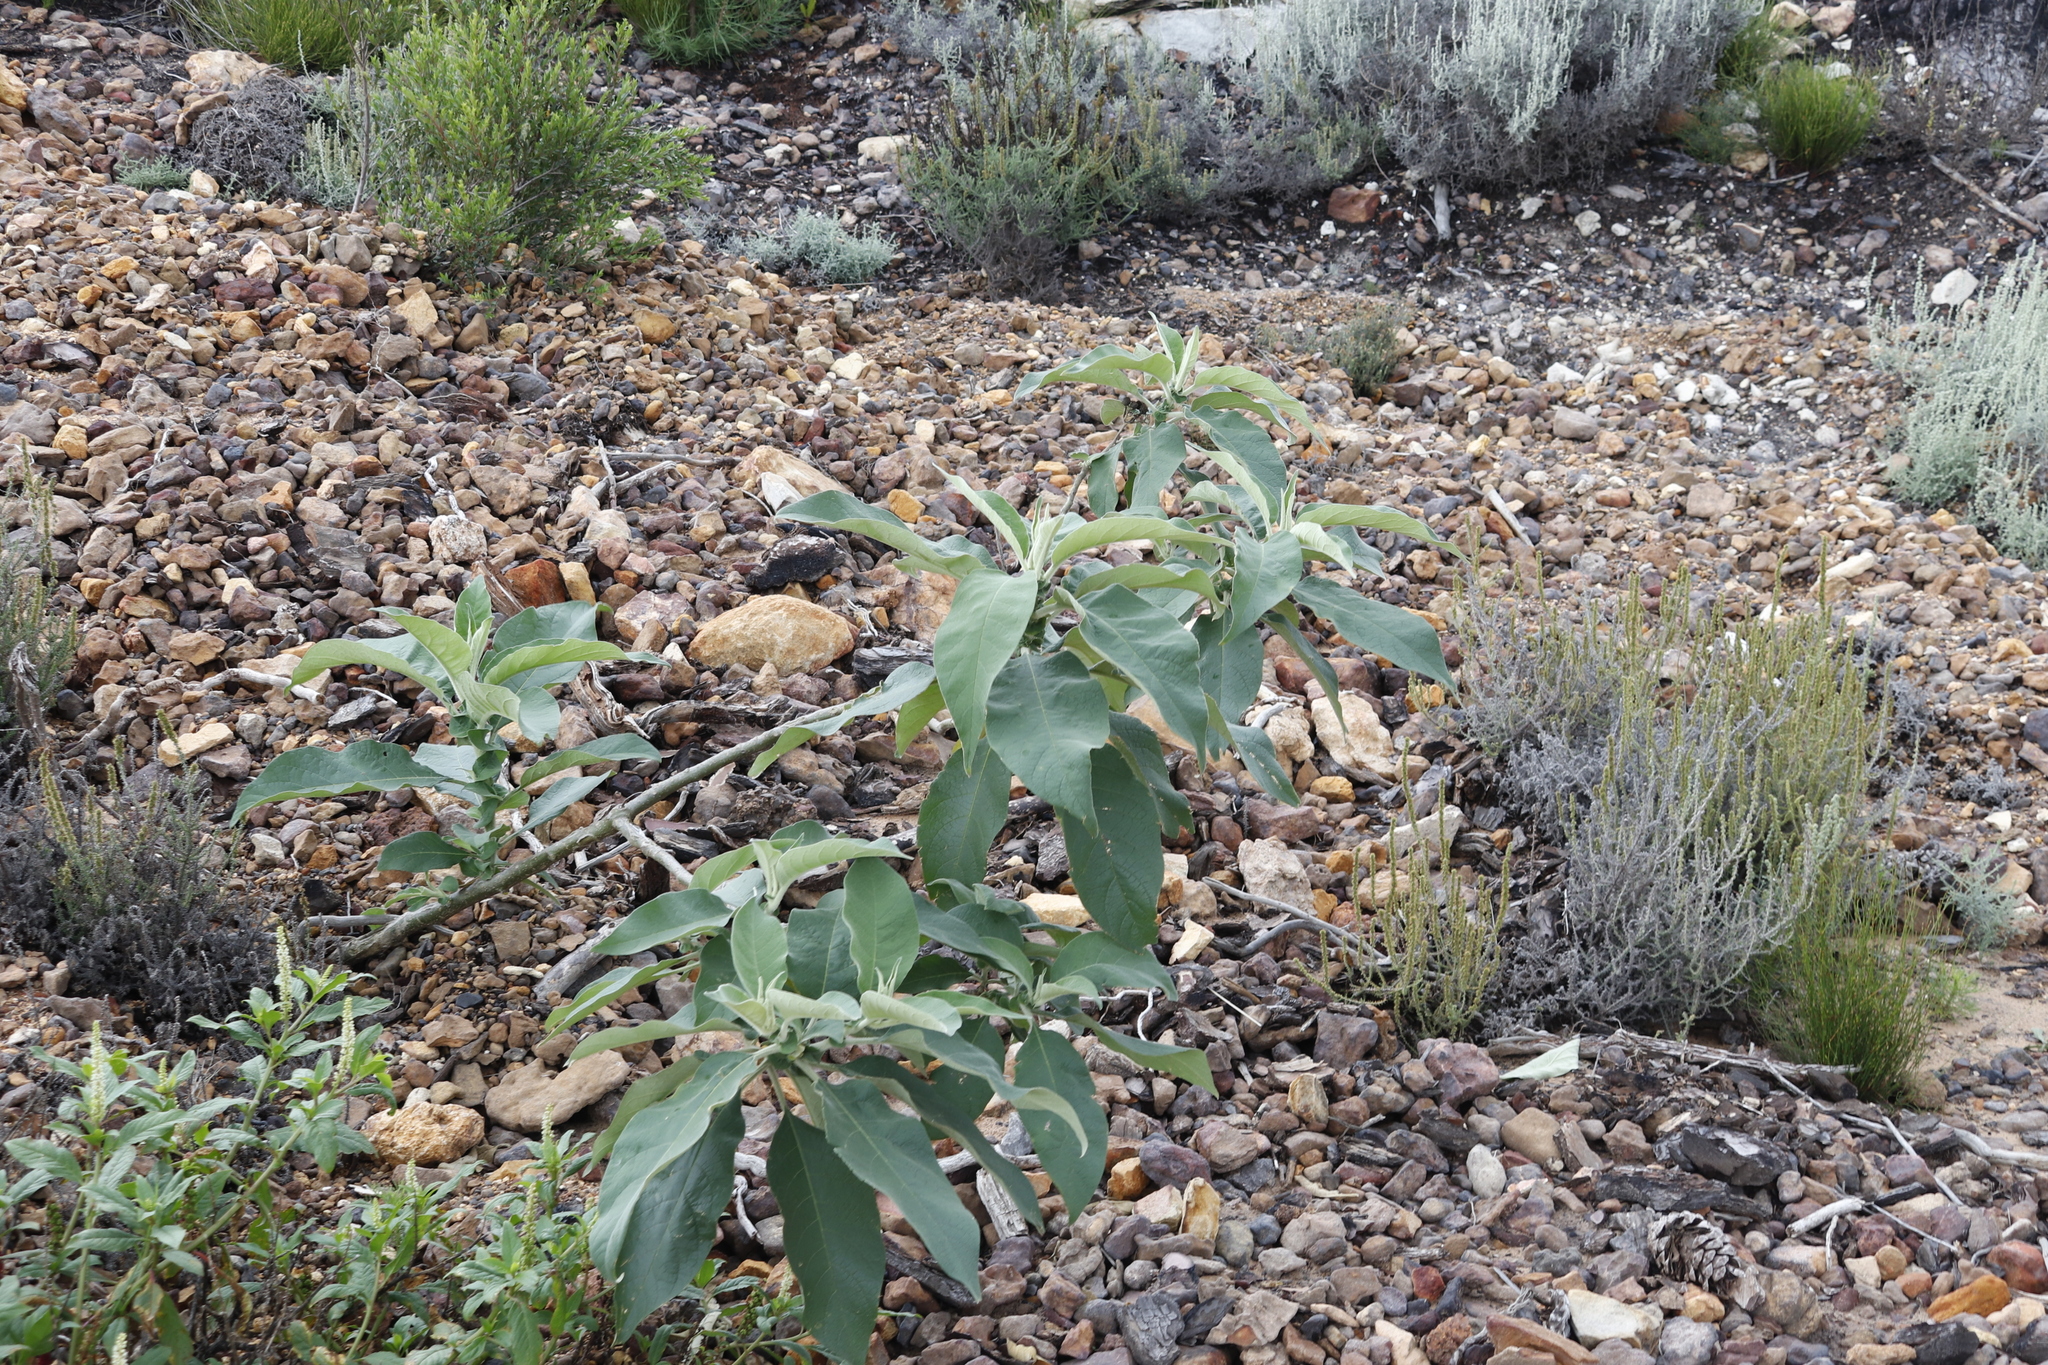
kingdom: Plantae
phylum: Tracheophyta
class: Magnoliopsida
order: Solanales
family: Solanaceae
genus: Solanum
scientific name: Solanum mauritianum
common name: Earleaf nightshade
